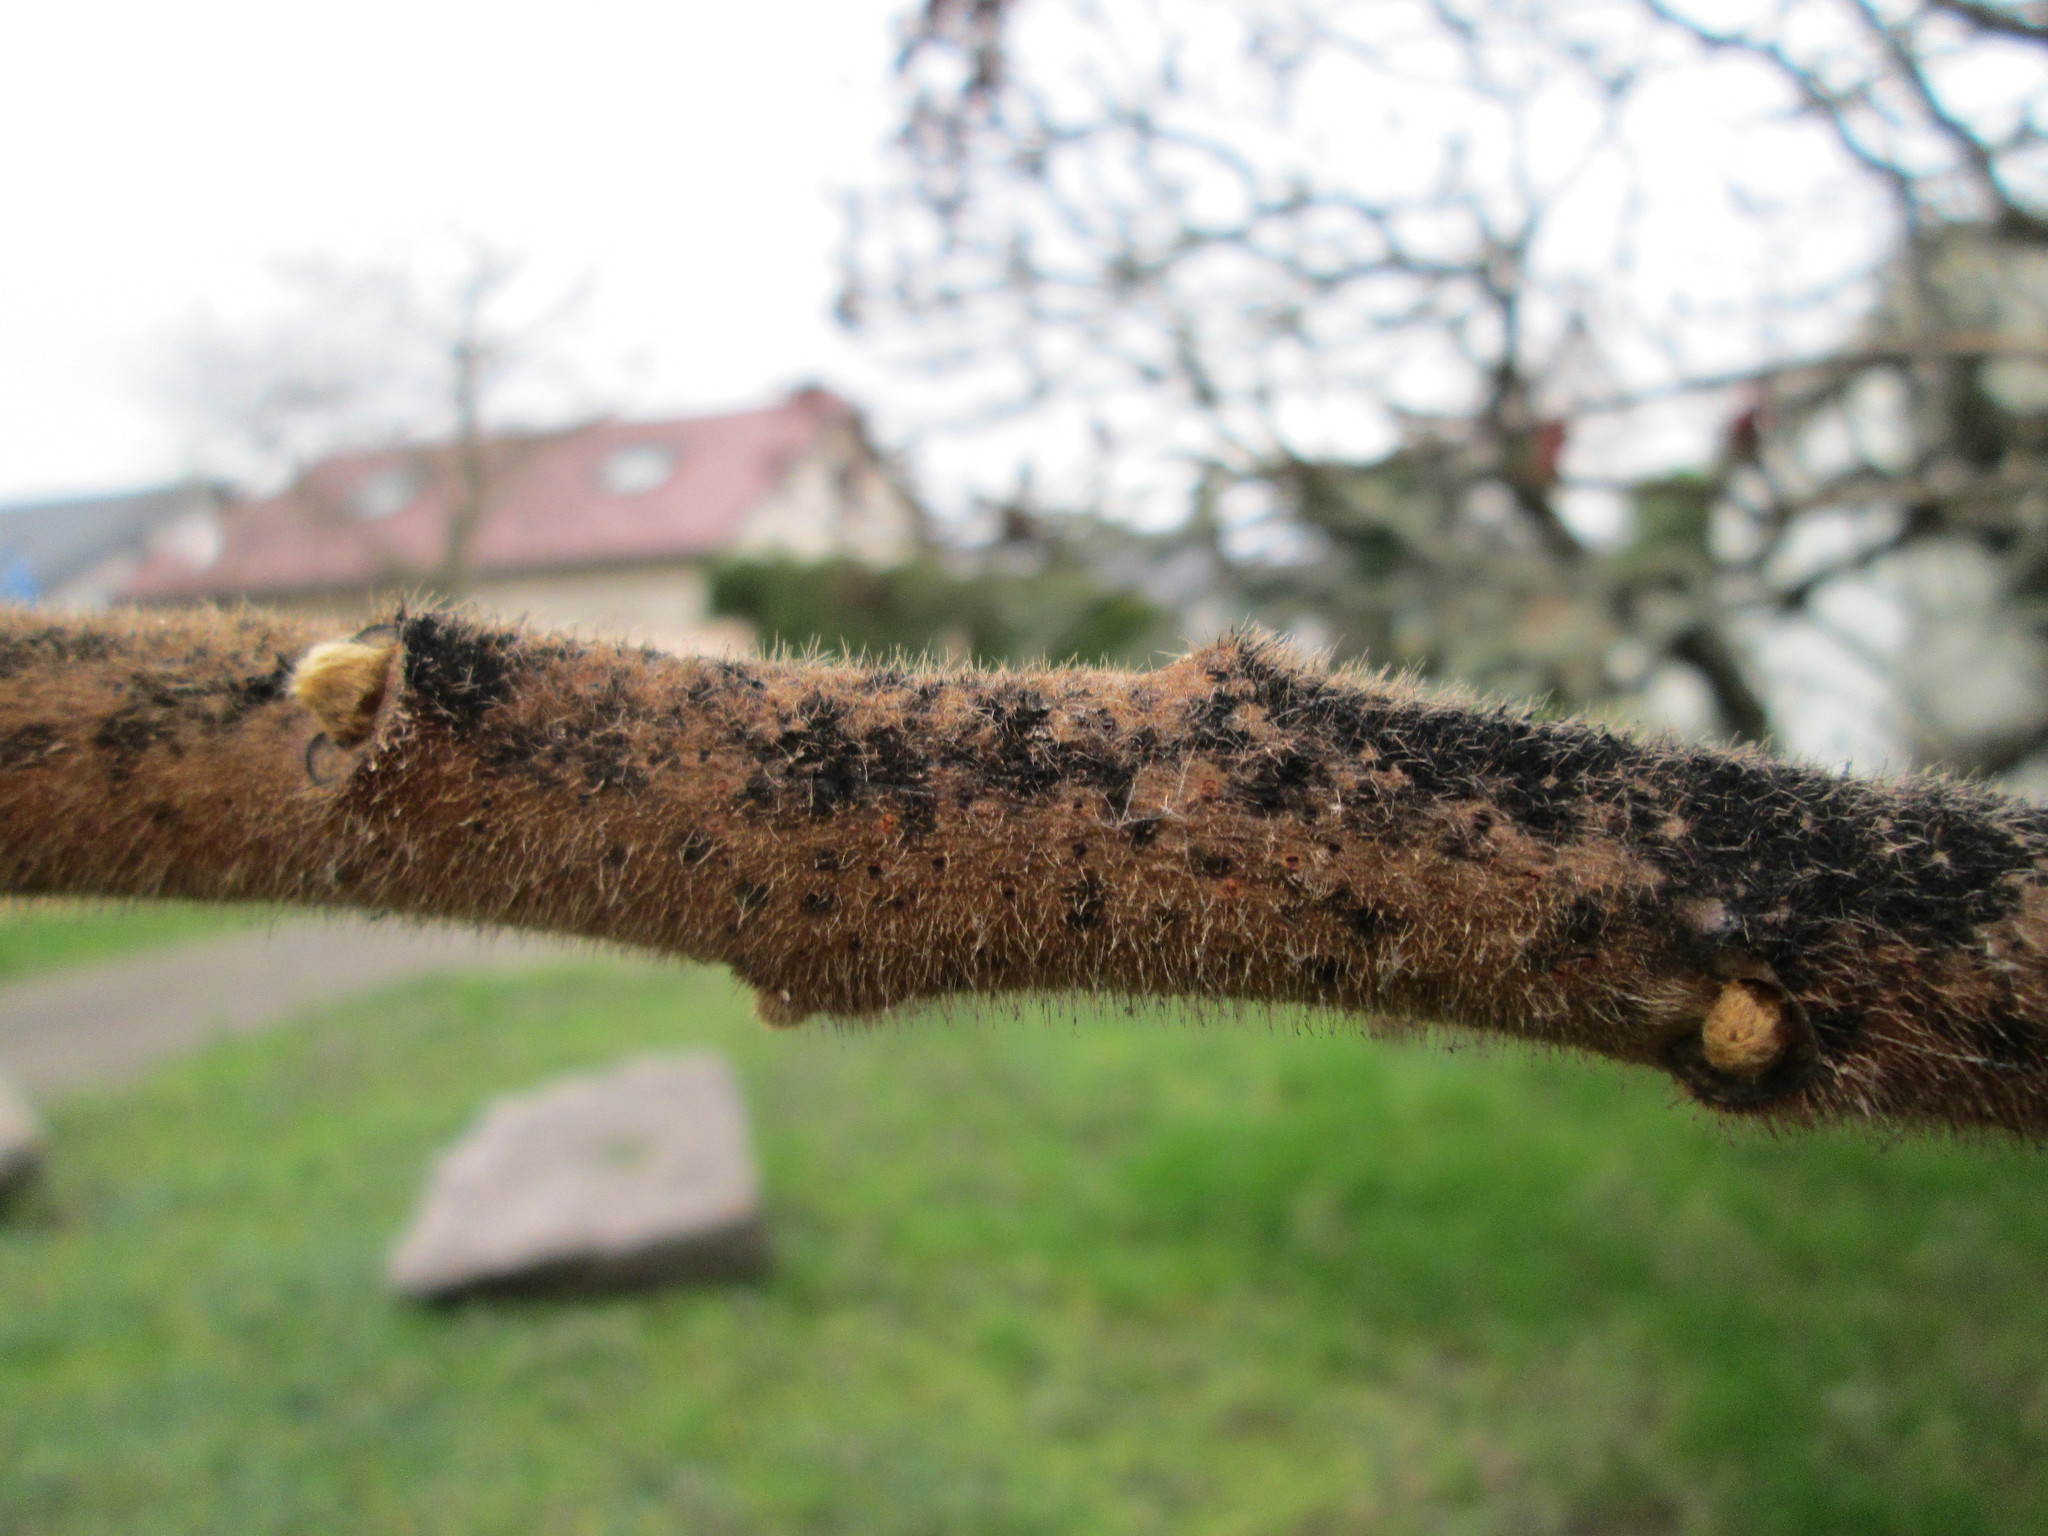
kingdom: Plantae
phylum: Tracheophyta
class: Magnoliopsida
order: Sapindales
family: Anacardiaceae
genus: Rhus
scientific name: Rhus typhina
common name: Staghorn sumac
